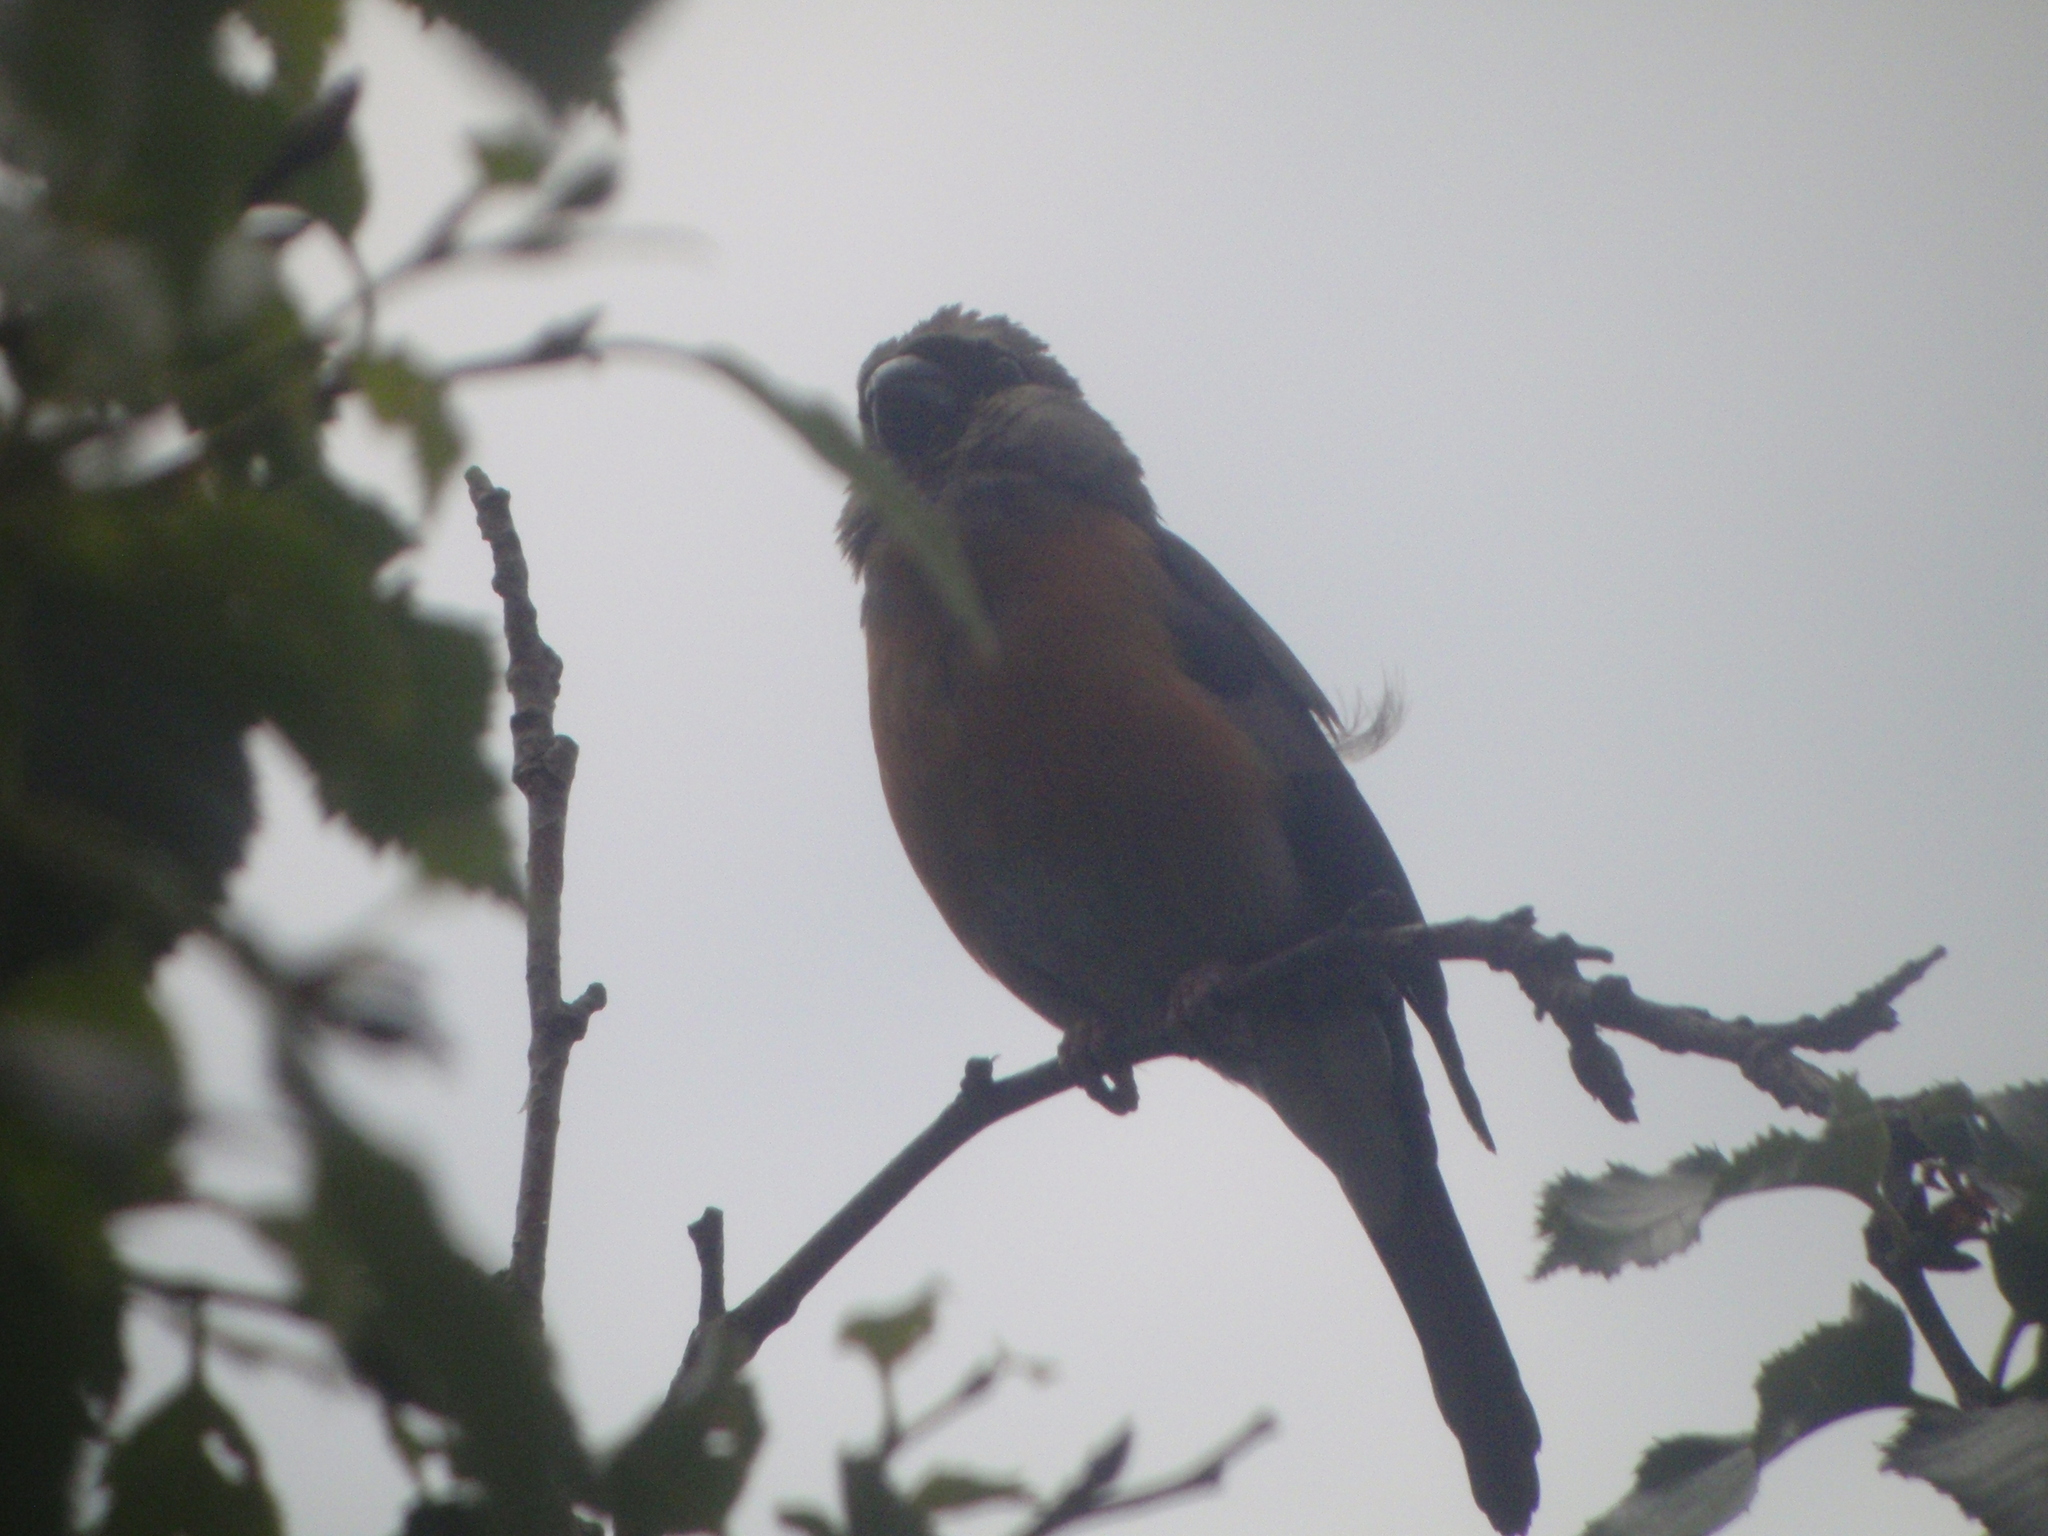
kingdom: Animalia
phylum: Chordata
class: Aves
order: Passeriformes
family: Fringillidae
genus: Pyrrhula
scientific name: Pyrrhula erythaca
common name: Grey-headed bullfinch
